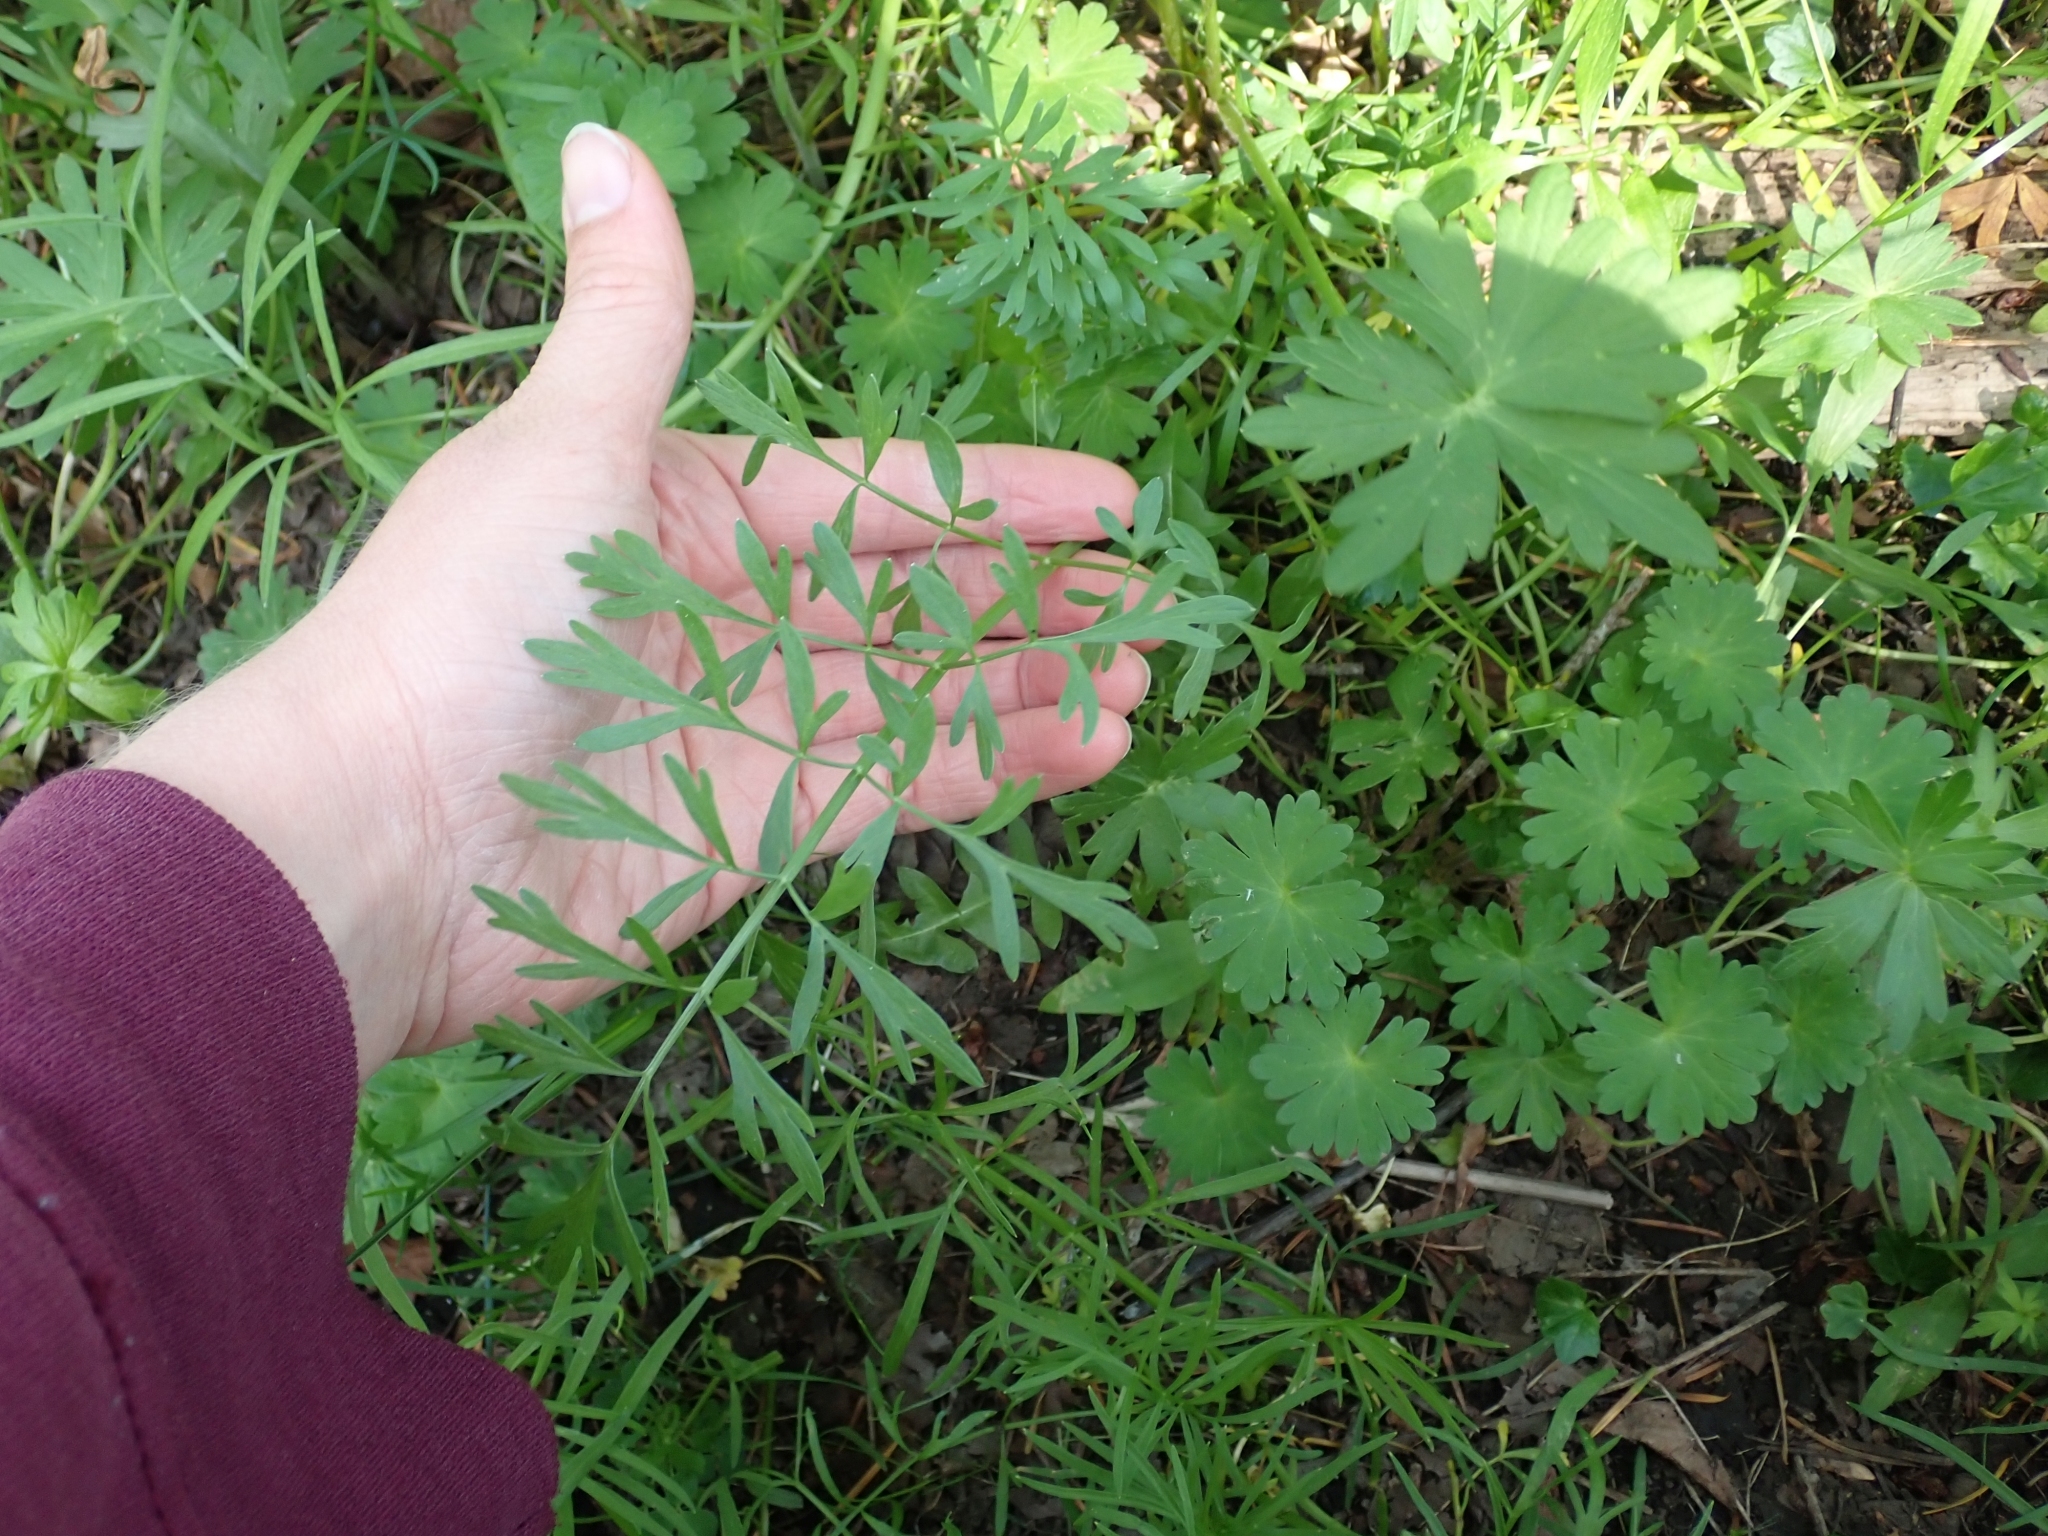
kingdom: Plantae
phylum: Tracheophyta
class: Magnoliopsida
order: Apiales
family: Apiaceae
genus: Perideridia
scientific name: Perideridia gairdneri
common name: False caraway
